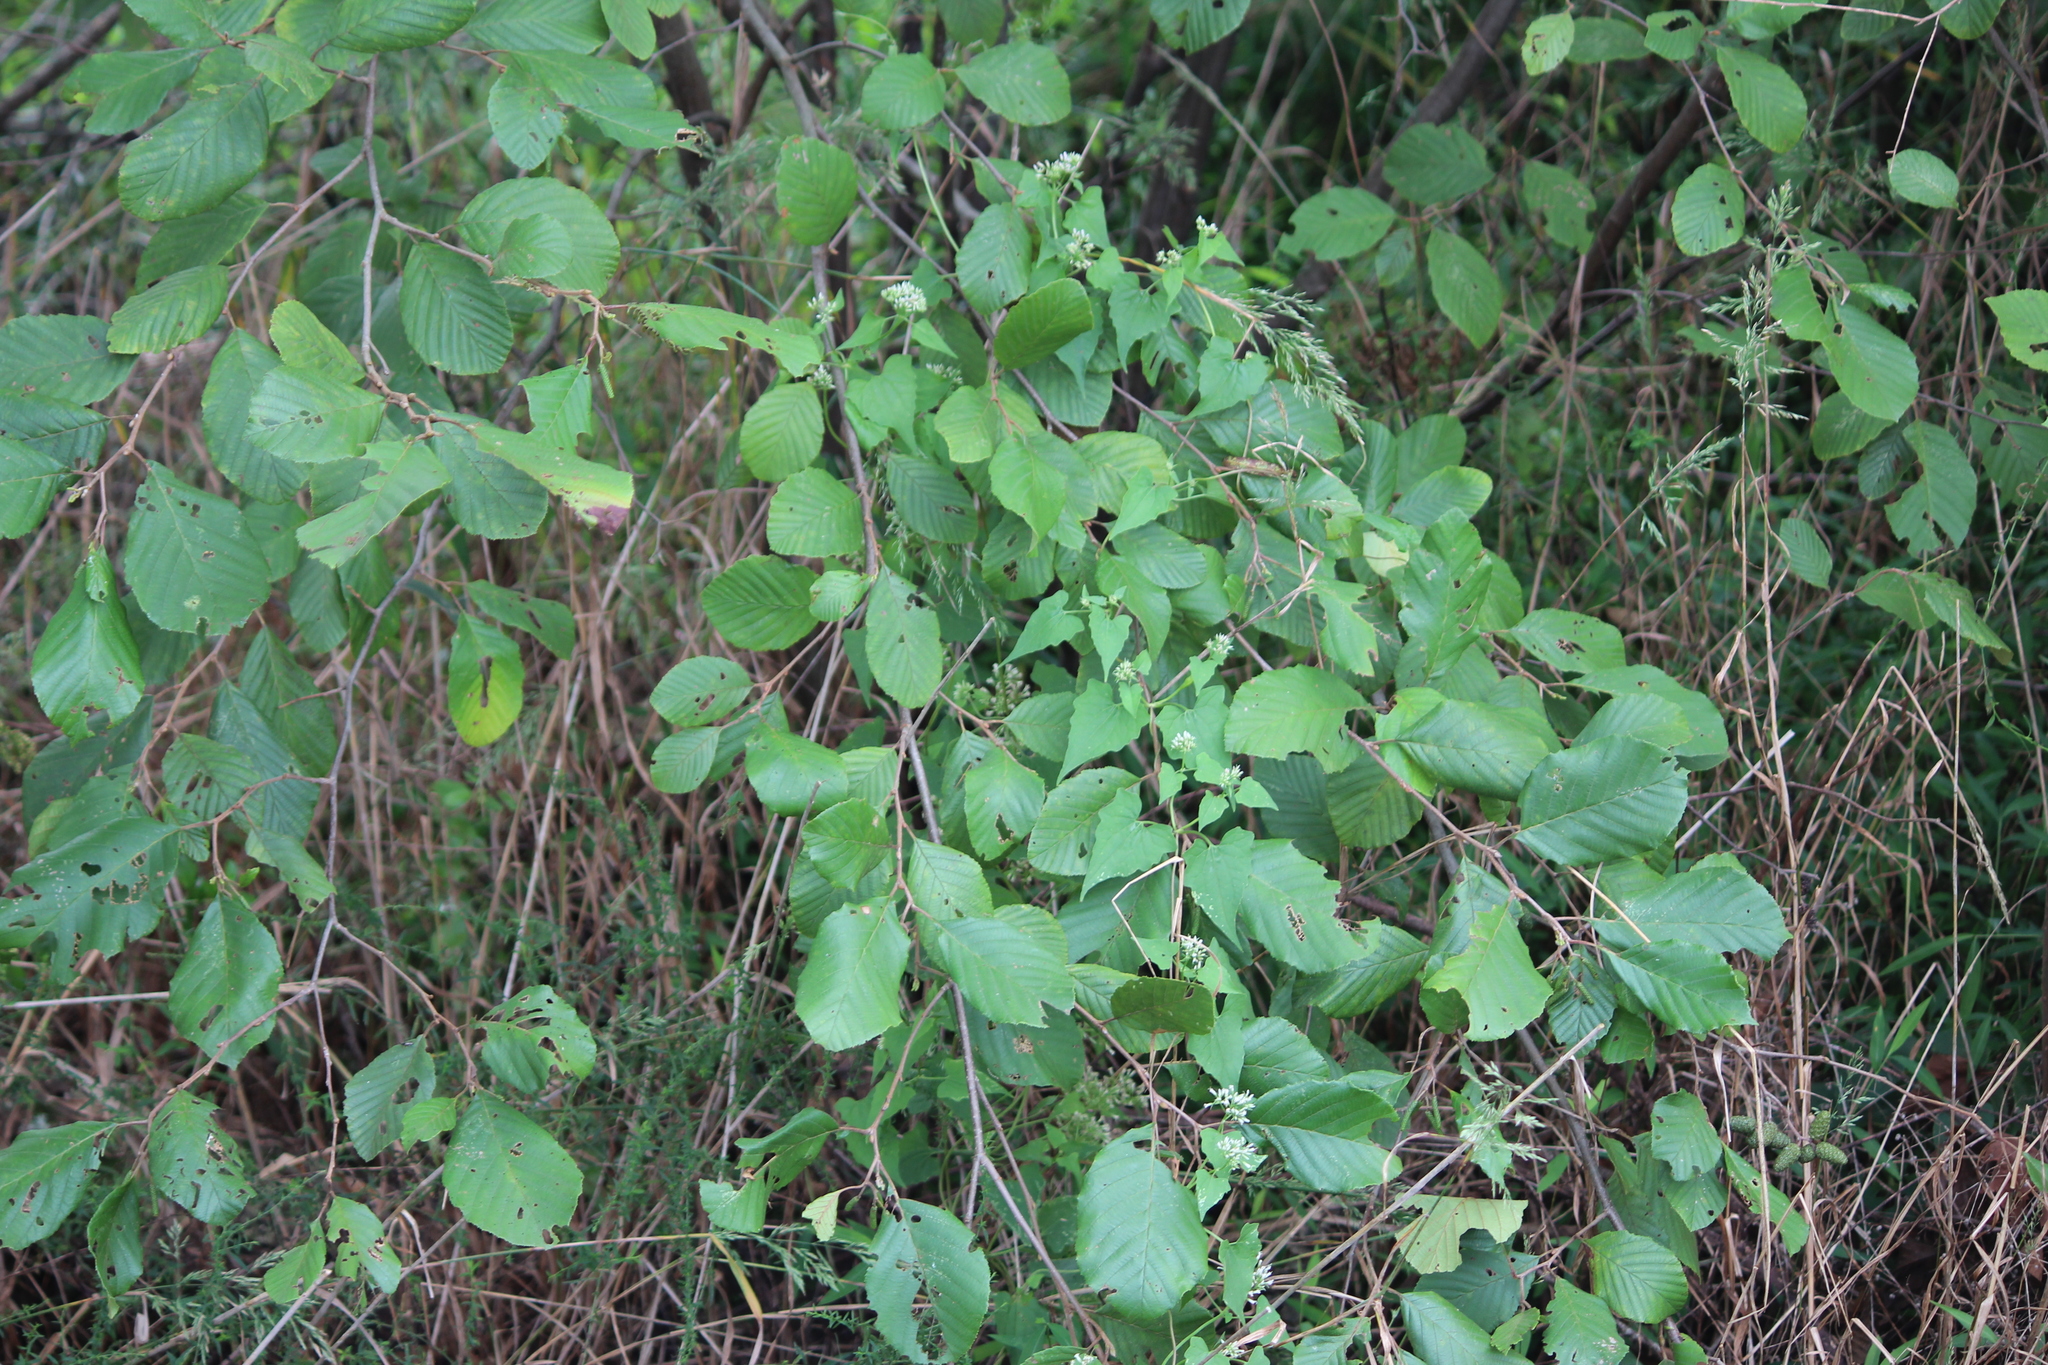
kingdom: Plantae
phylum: Tracheophyta
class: Magnoliopsida
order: Fagales
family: Betulaceae
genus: Alnus
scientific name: Alnus serrulata
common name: Hazel alder
